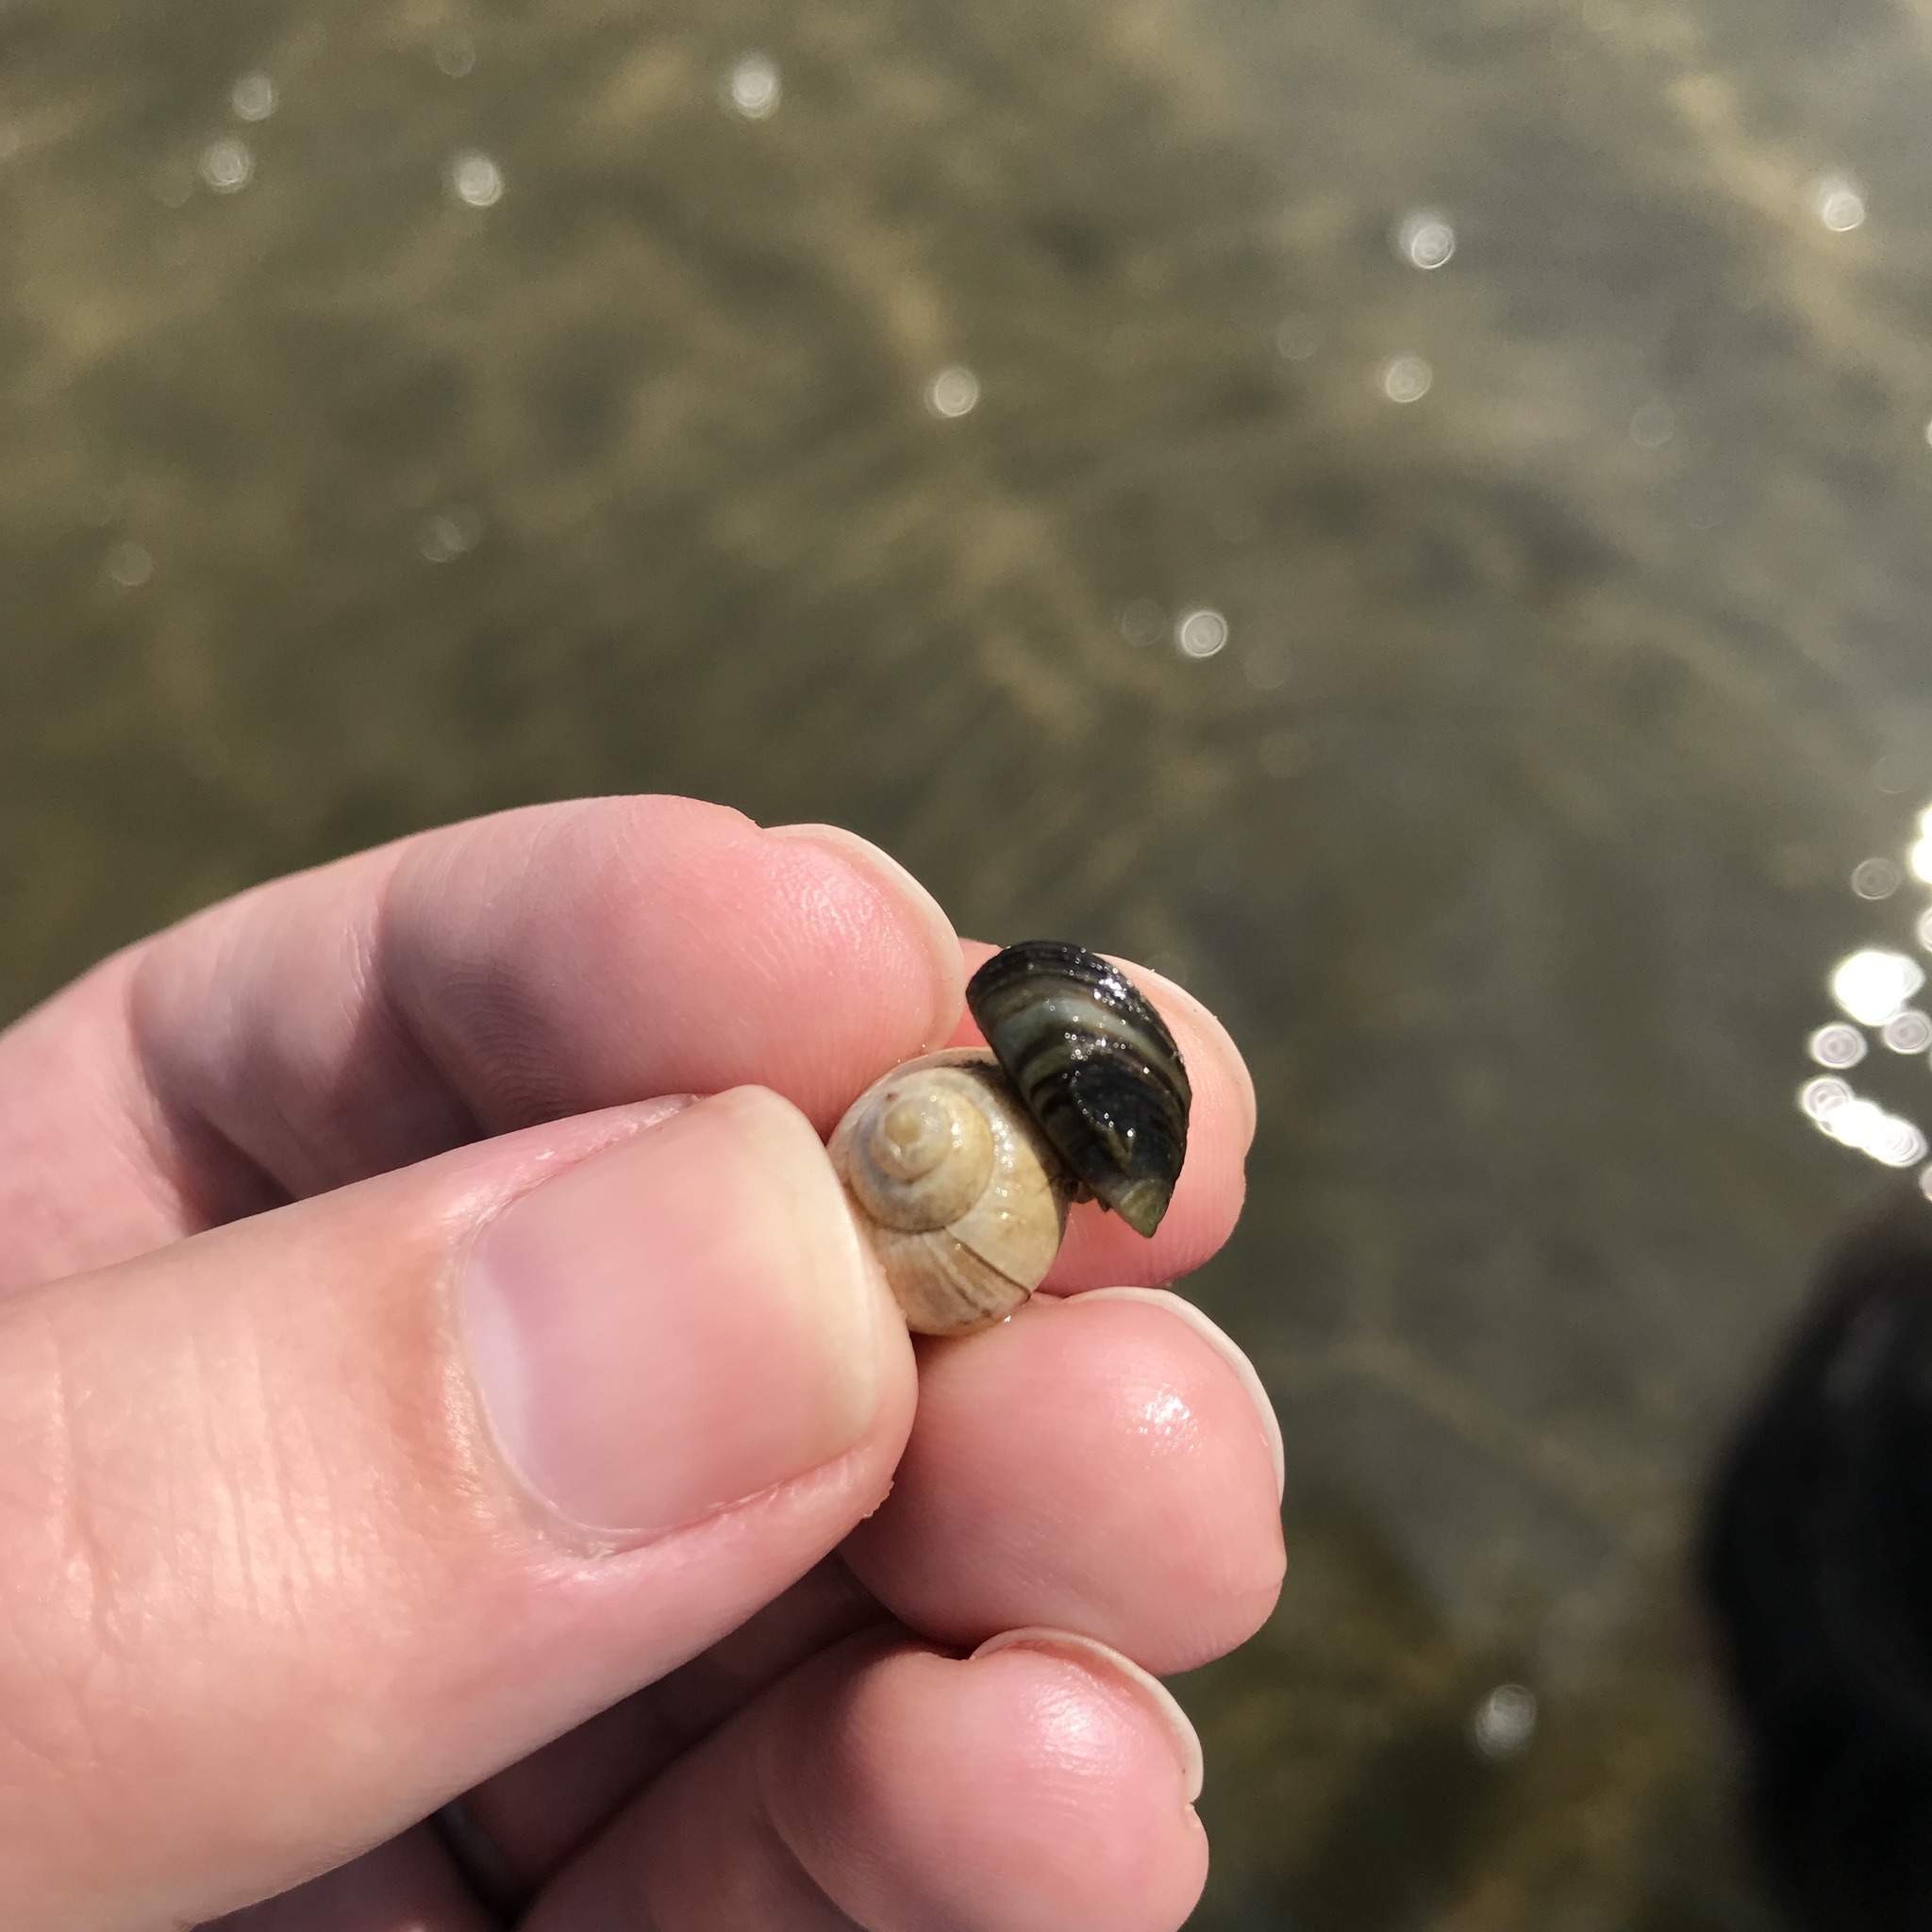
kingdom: Animalia
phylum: Mollusca
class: Bivalvia
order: Myida
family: Dreissenidae
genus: Dreissena
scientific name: Dreissena polymorpha
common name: Zebra mussel
